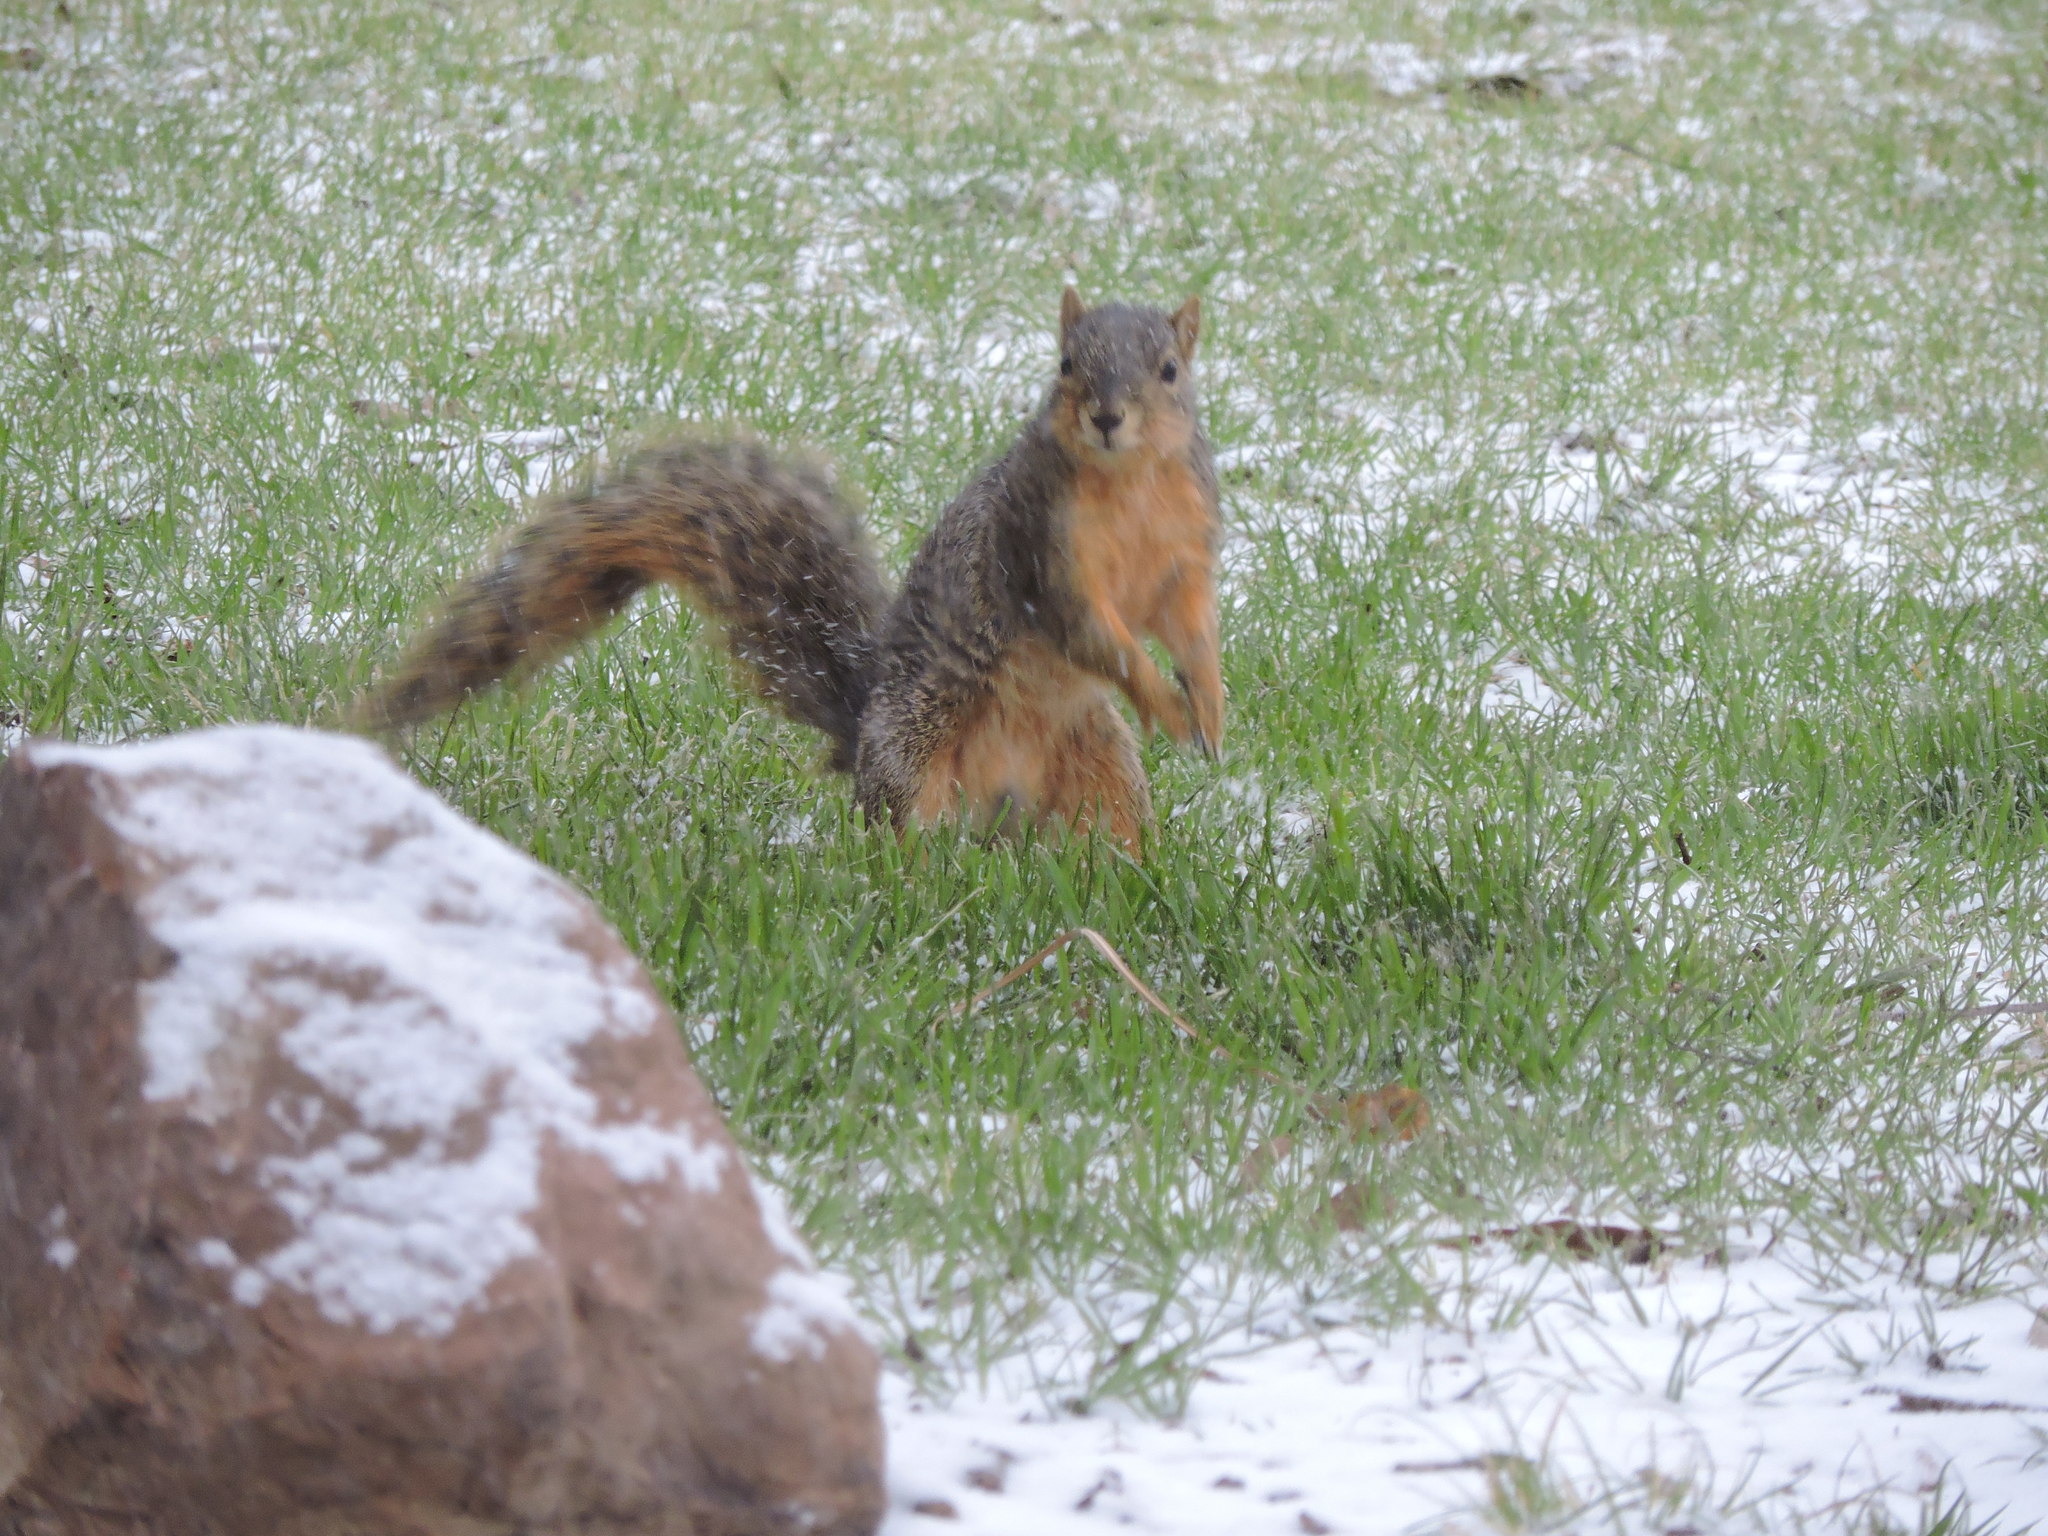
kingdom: Animalia
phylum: Chordata
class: Mammalia
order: Rodentia
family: Sciuridae
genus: Sciurus
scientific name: Sciurus niger
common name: Fox squirrel
